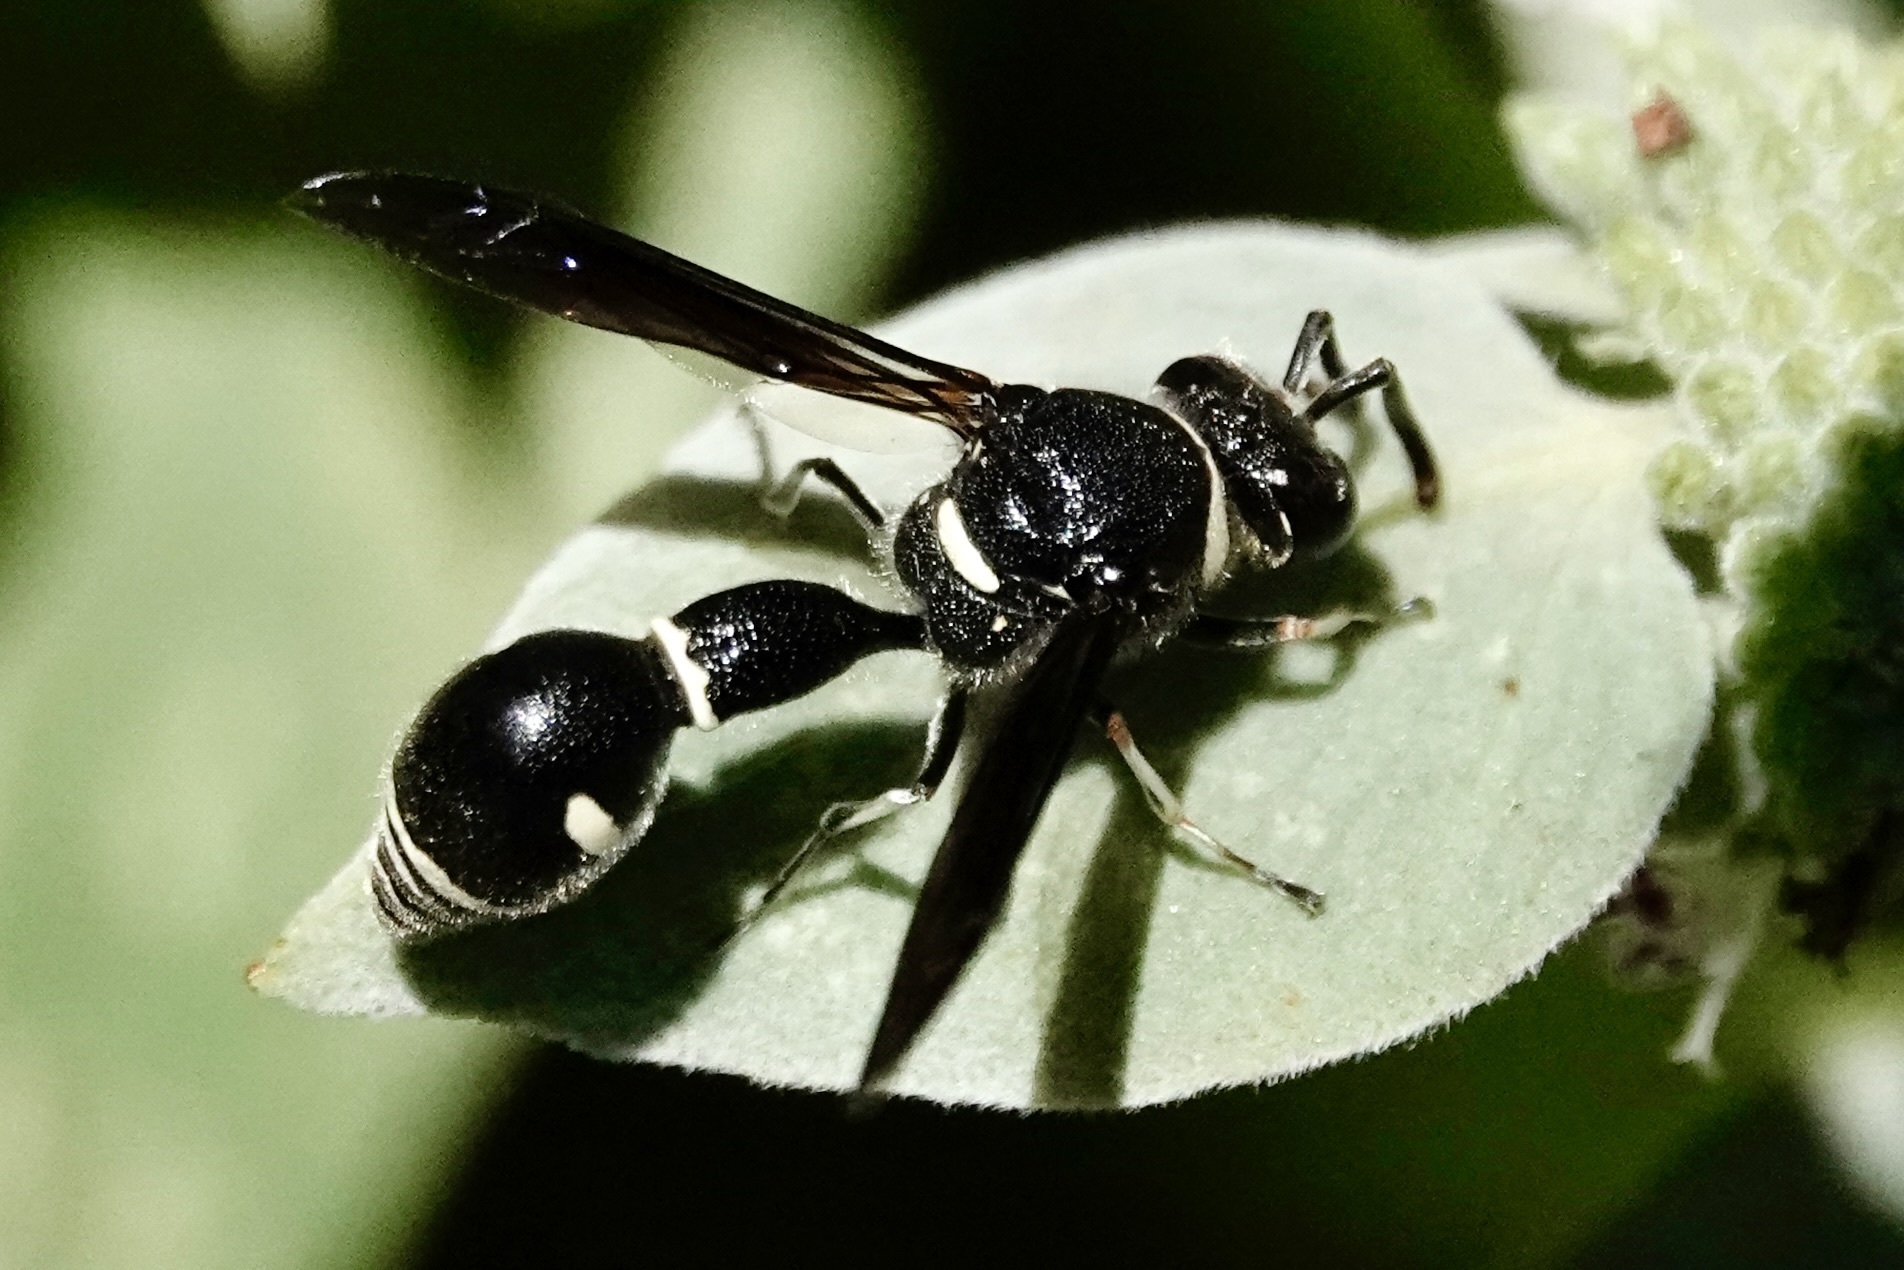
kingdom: Animalia
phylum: Arthropoda
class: Insecta
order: Hymenoptera
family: Vespidae
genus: Eumenes
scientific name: Eumenes fraternus
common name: Fraternal potter wasp
